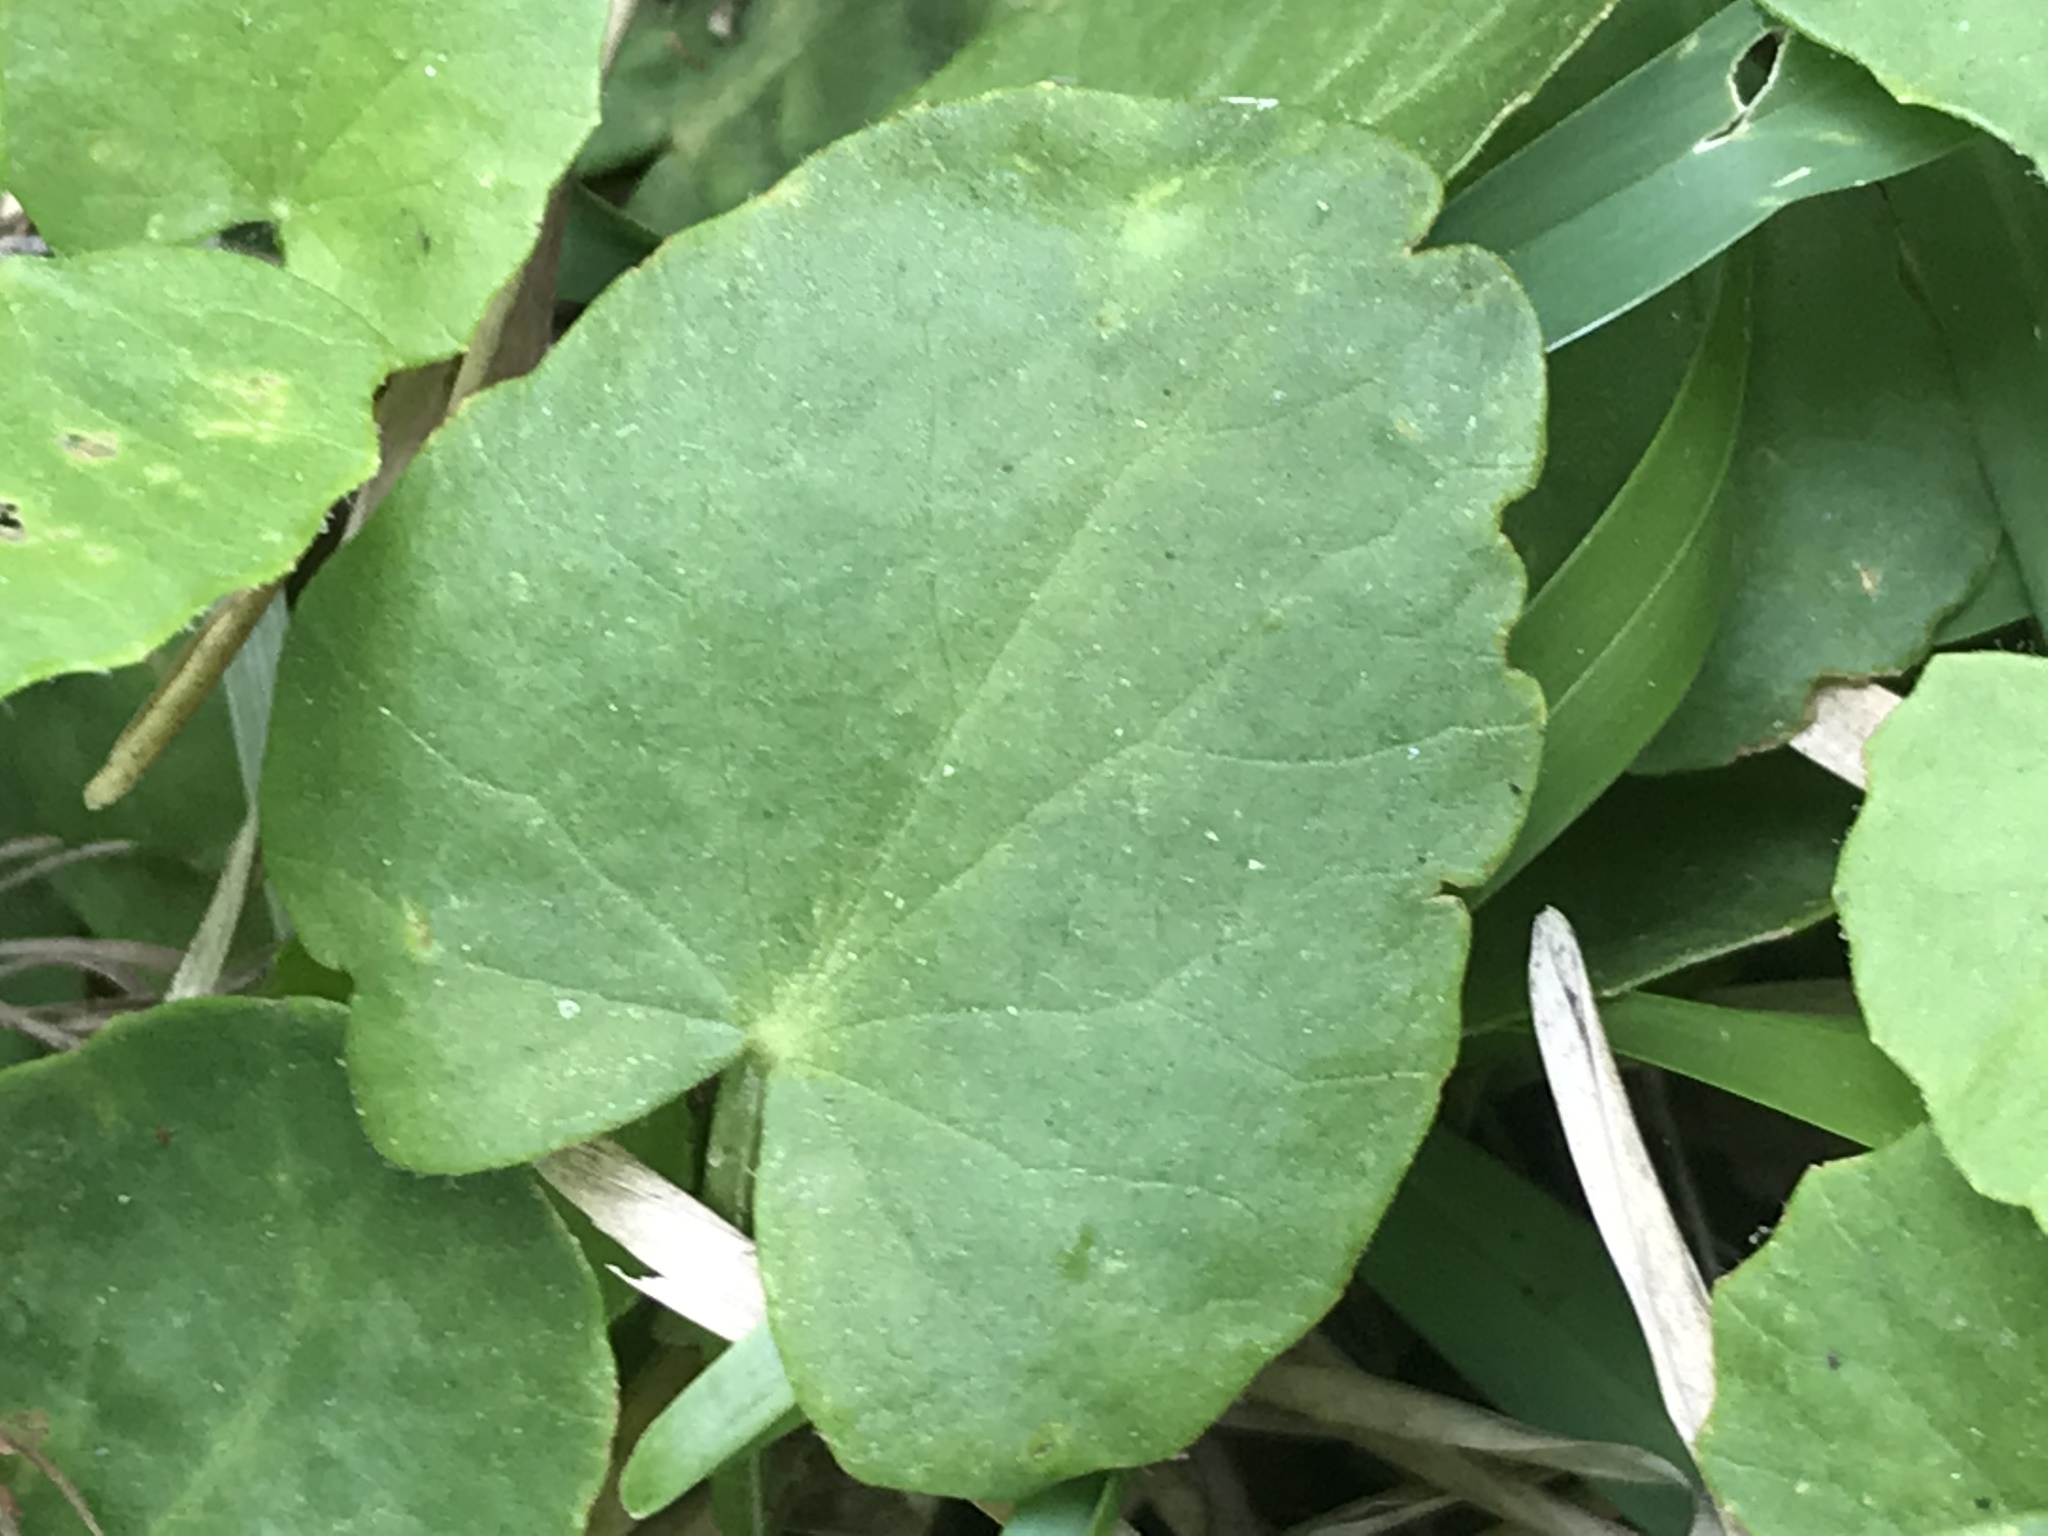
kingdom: Plantae
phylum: Tracheophyta
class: Magnoliopsida
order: Apiales
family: Apiaceae
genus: Centella
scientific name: Centella erecta
